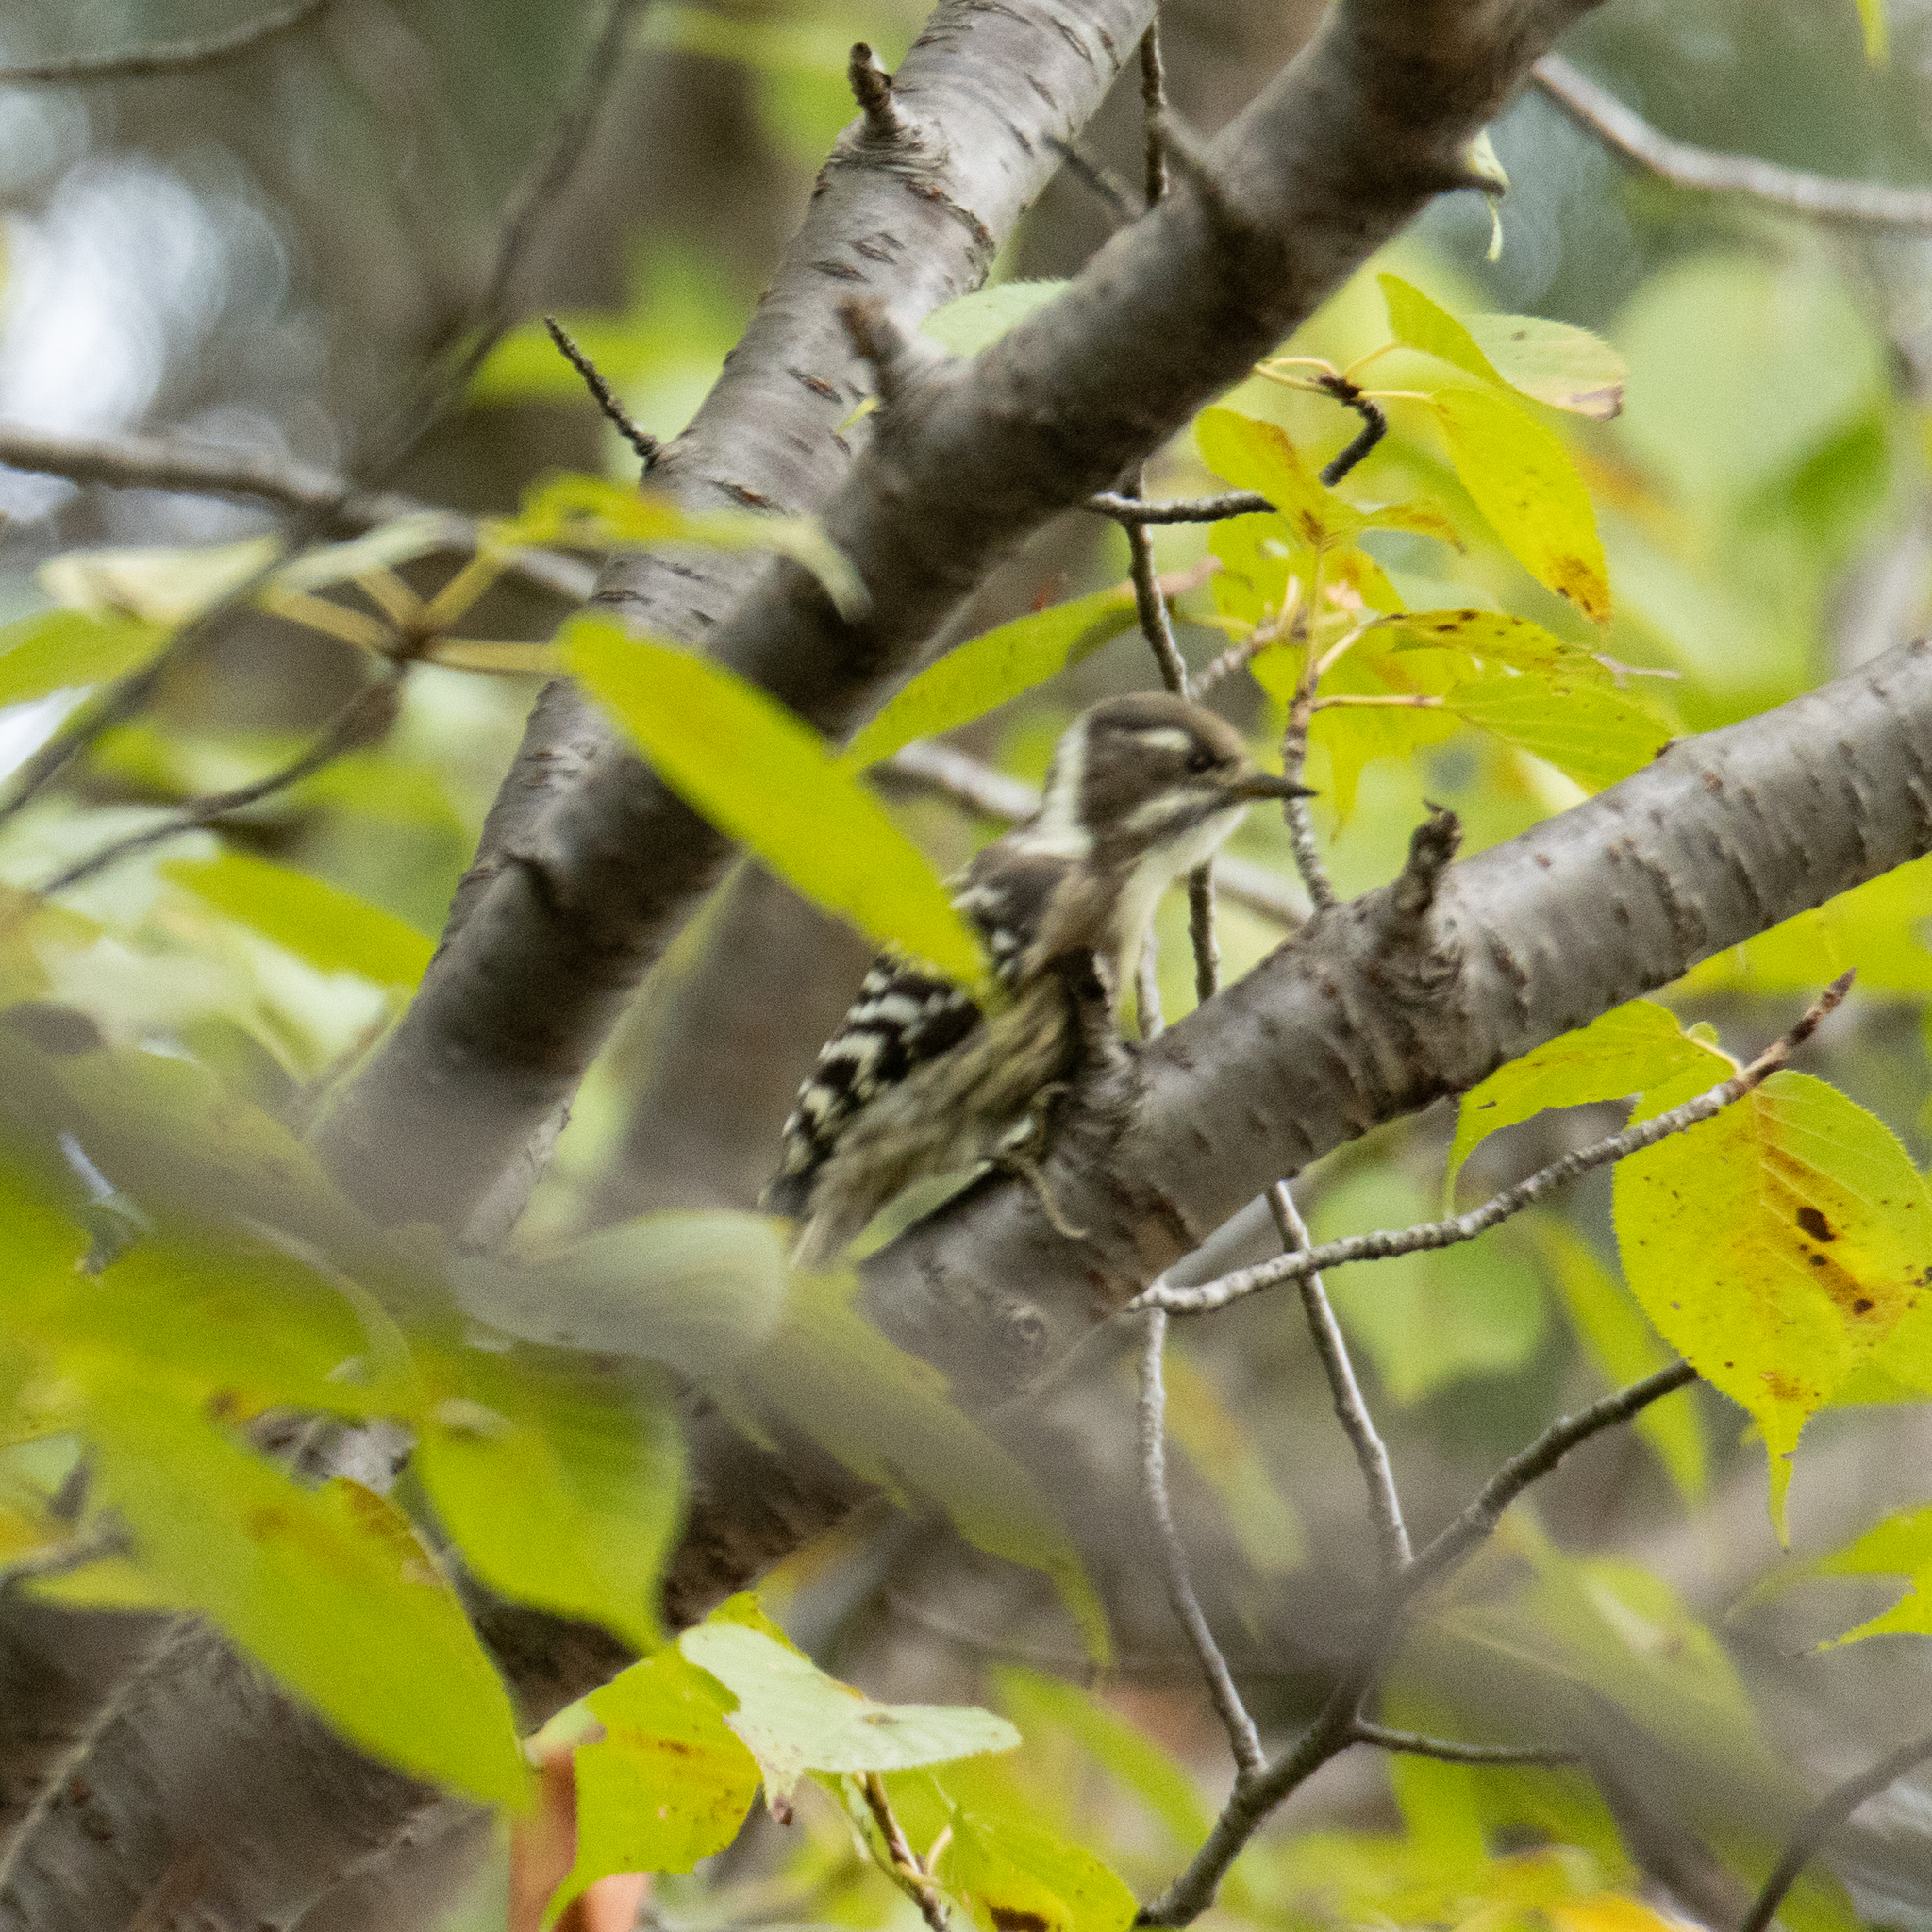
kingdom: Animalia
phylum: Chordata
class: Aves
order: Piciformes
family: Picidae
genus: Yungipicus
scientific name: Yungipicus kizuki
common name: Japanese pygmy woodpecker
